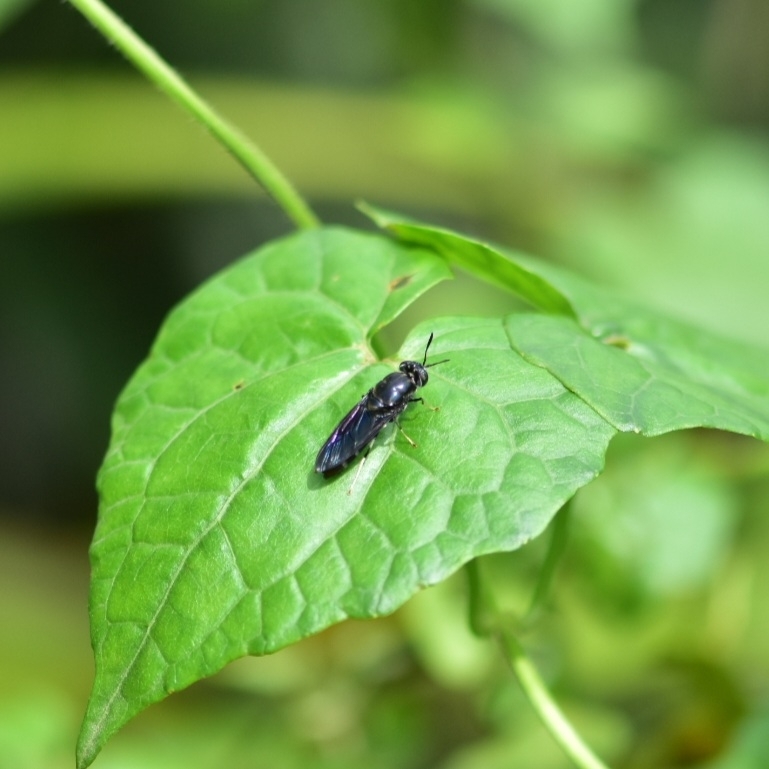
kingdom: Animalia
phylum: Arthropoda
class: Insecta
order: Diptera
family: Stratiomyidae
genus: Hermetia
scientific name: Hermetia illucens
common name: Black soldier fly
